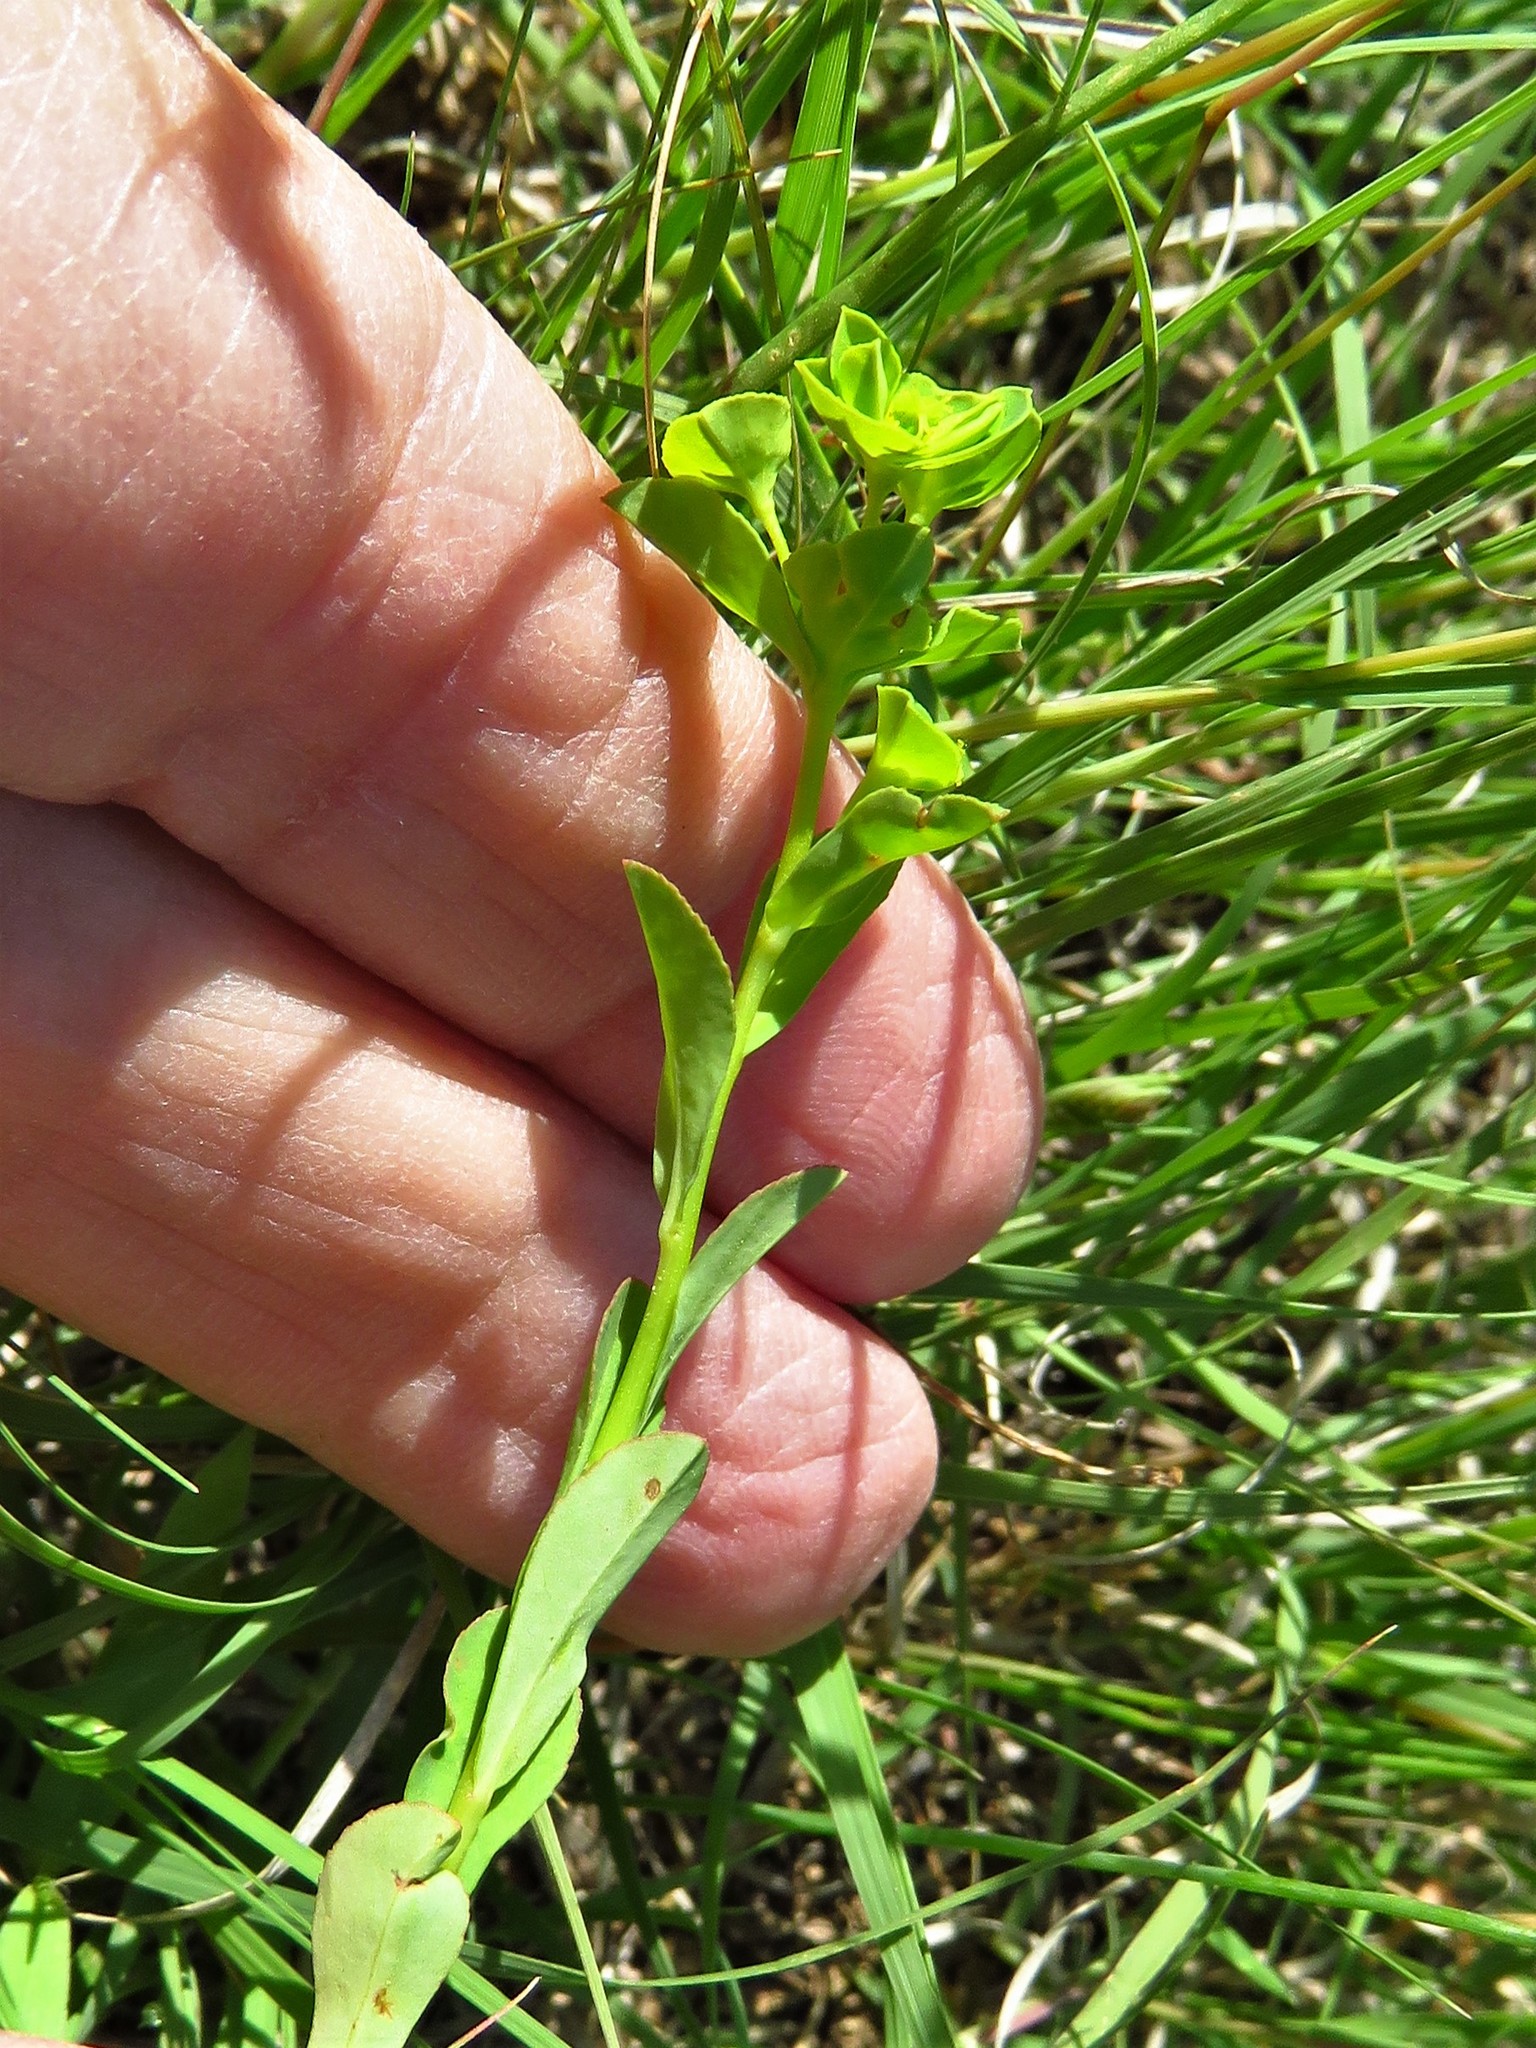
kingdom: Plantae
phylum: Tracheophyta
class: Magnoliopsida
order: Malpighiales
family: Euphorbiaceae
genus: Euphorbia
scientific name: Euphorbia spathulata
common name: Blunt spurge
